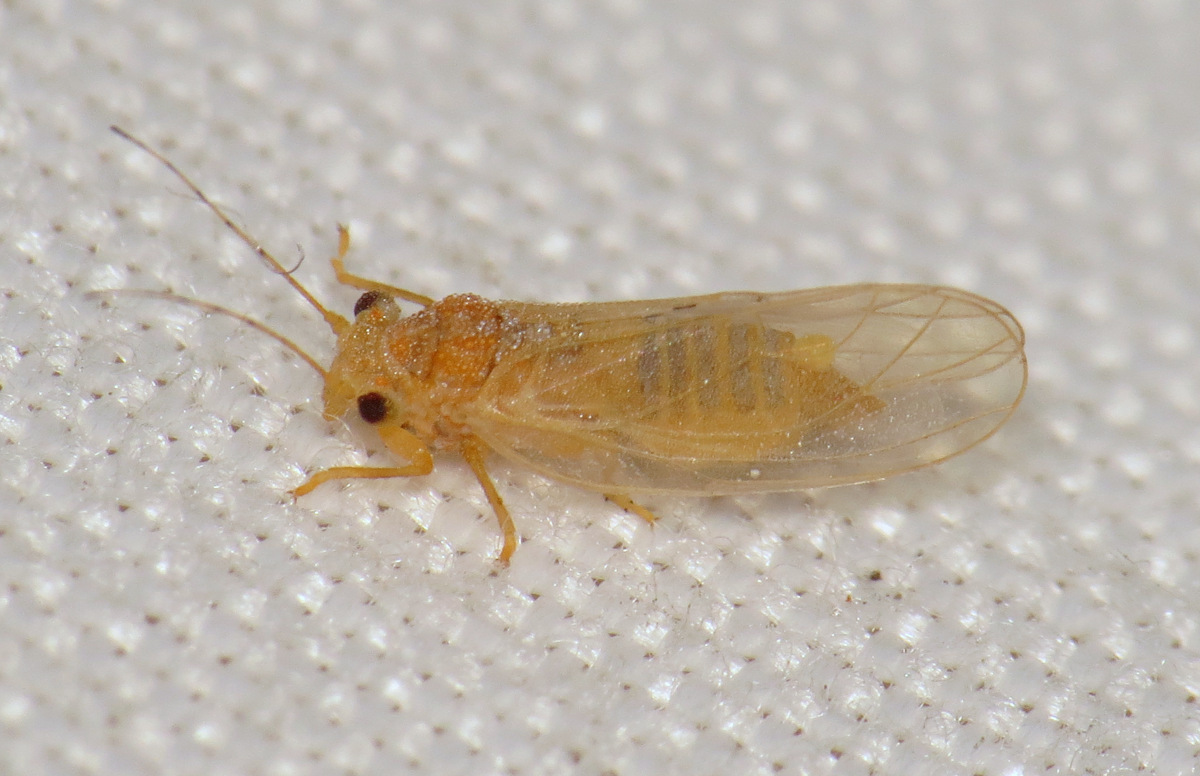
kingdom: Animalia
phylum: Arthropoda
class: Insecta
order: Hemiptera
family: Psyllidae
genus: Cacopsylla
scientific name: Cacopsylla annulata
